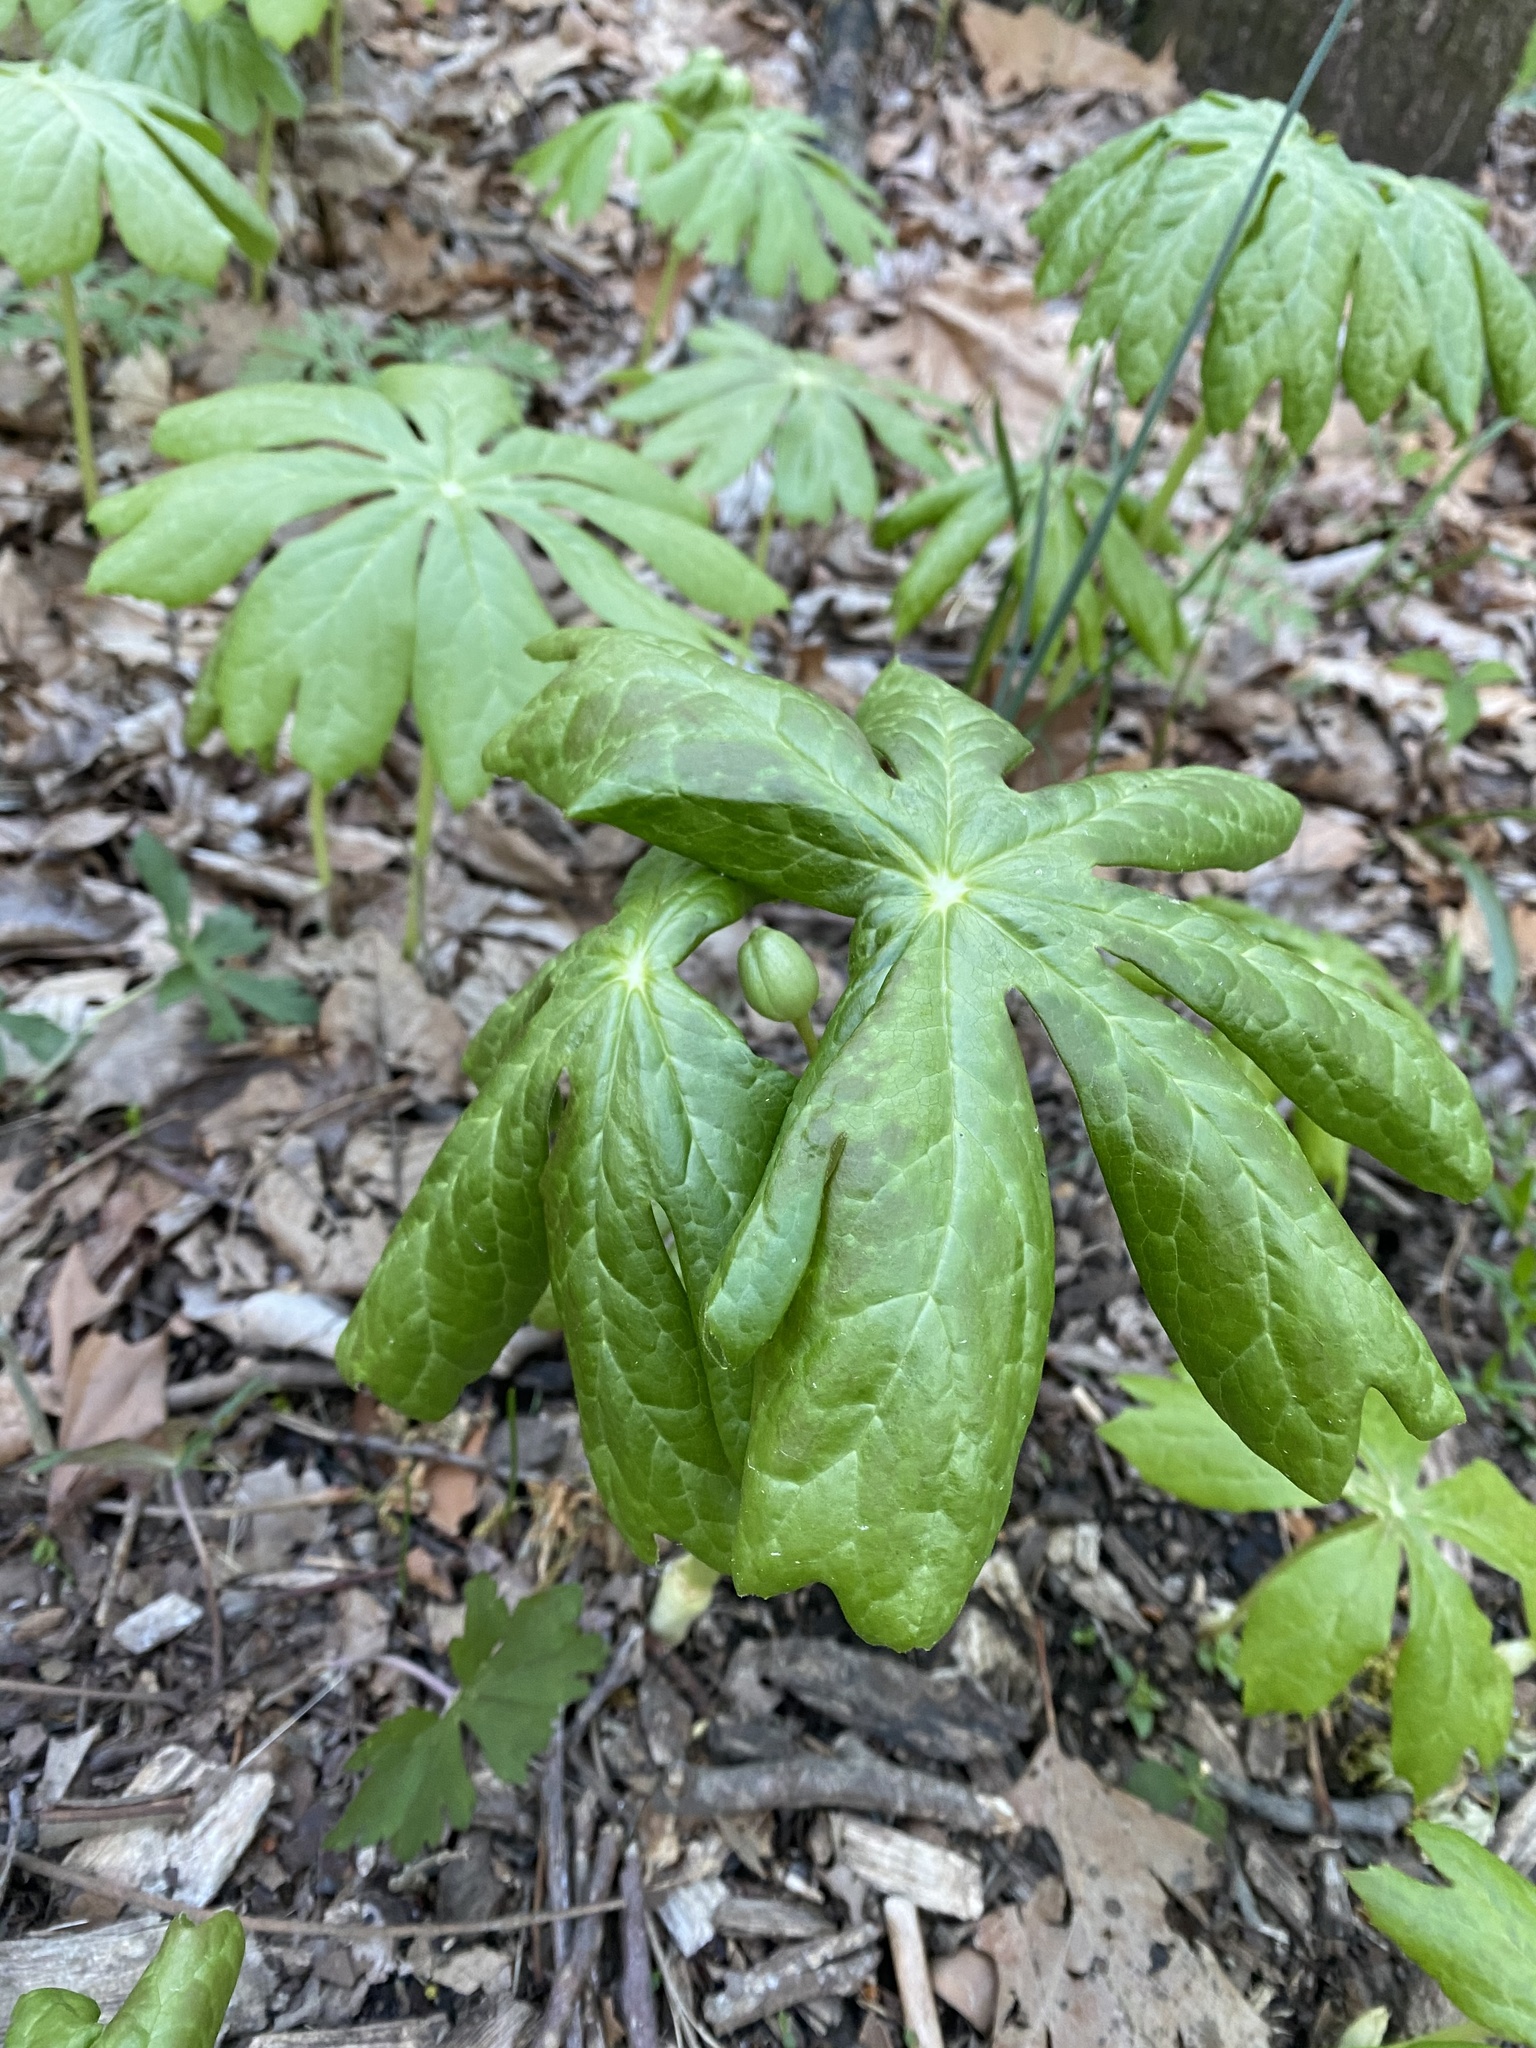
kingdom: Plantae
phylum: Tracheophyta
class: Magnoliopsida
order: Ranunculales
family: Berberidaceae
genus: Podophyllum
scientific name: Podophyllum peltatum
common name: Wild mandrake
